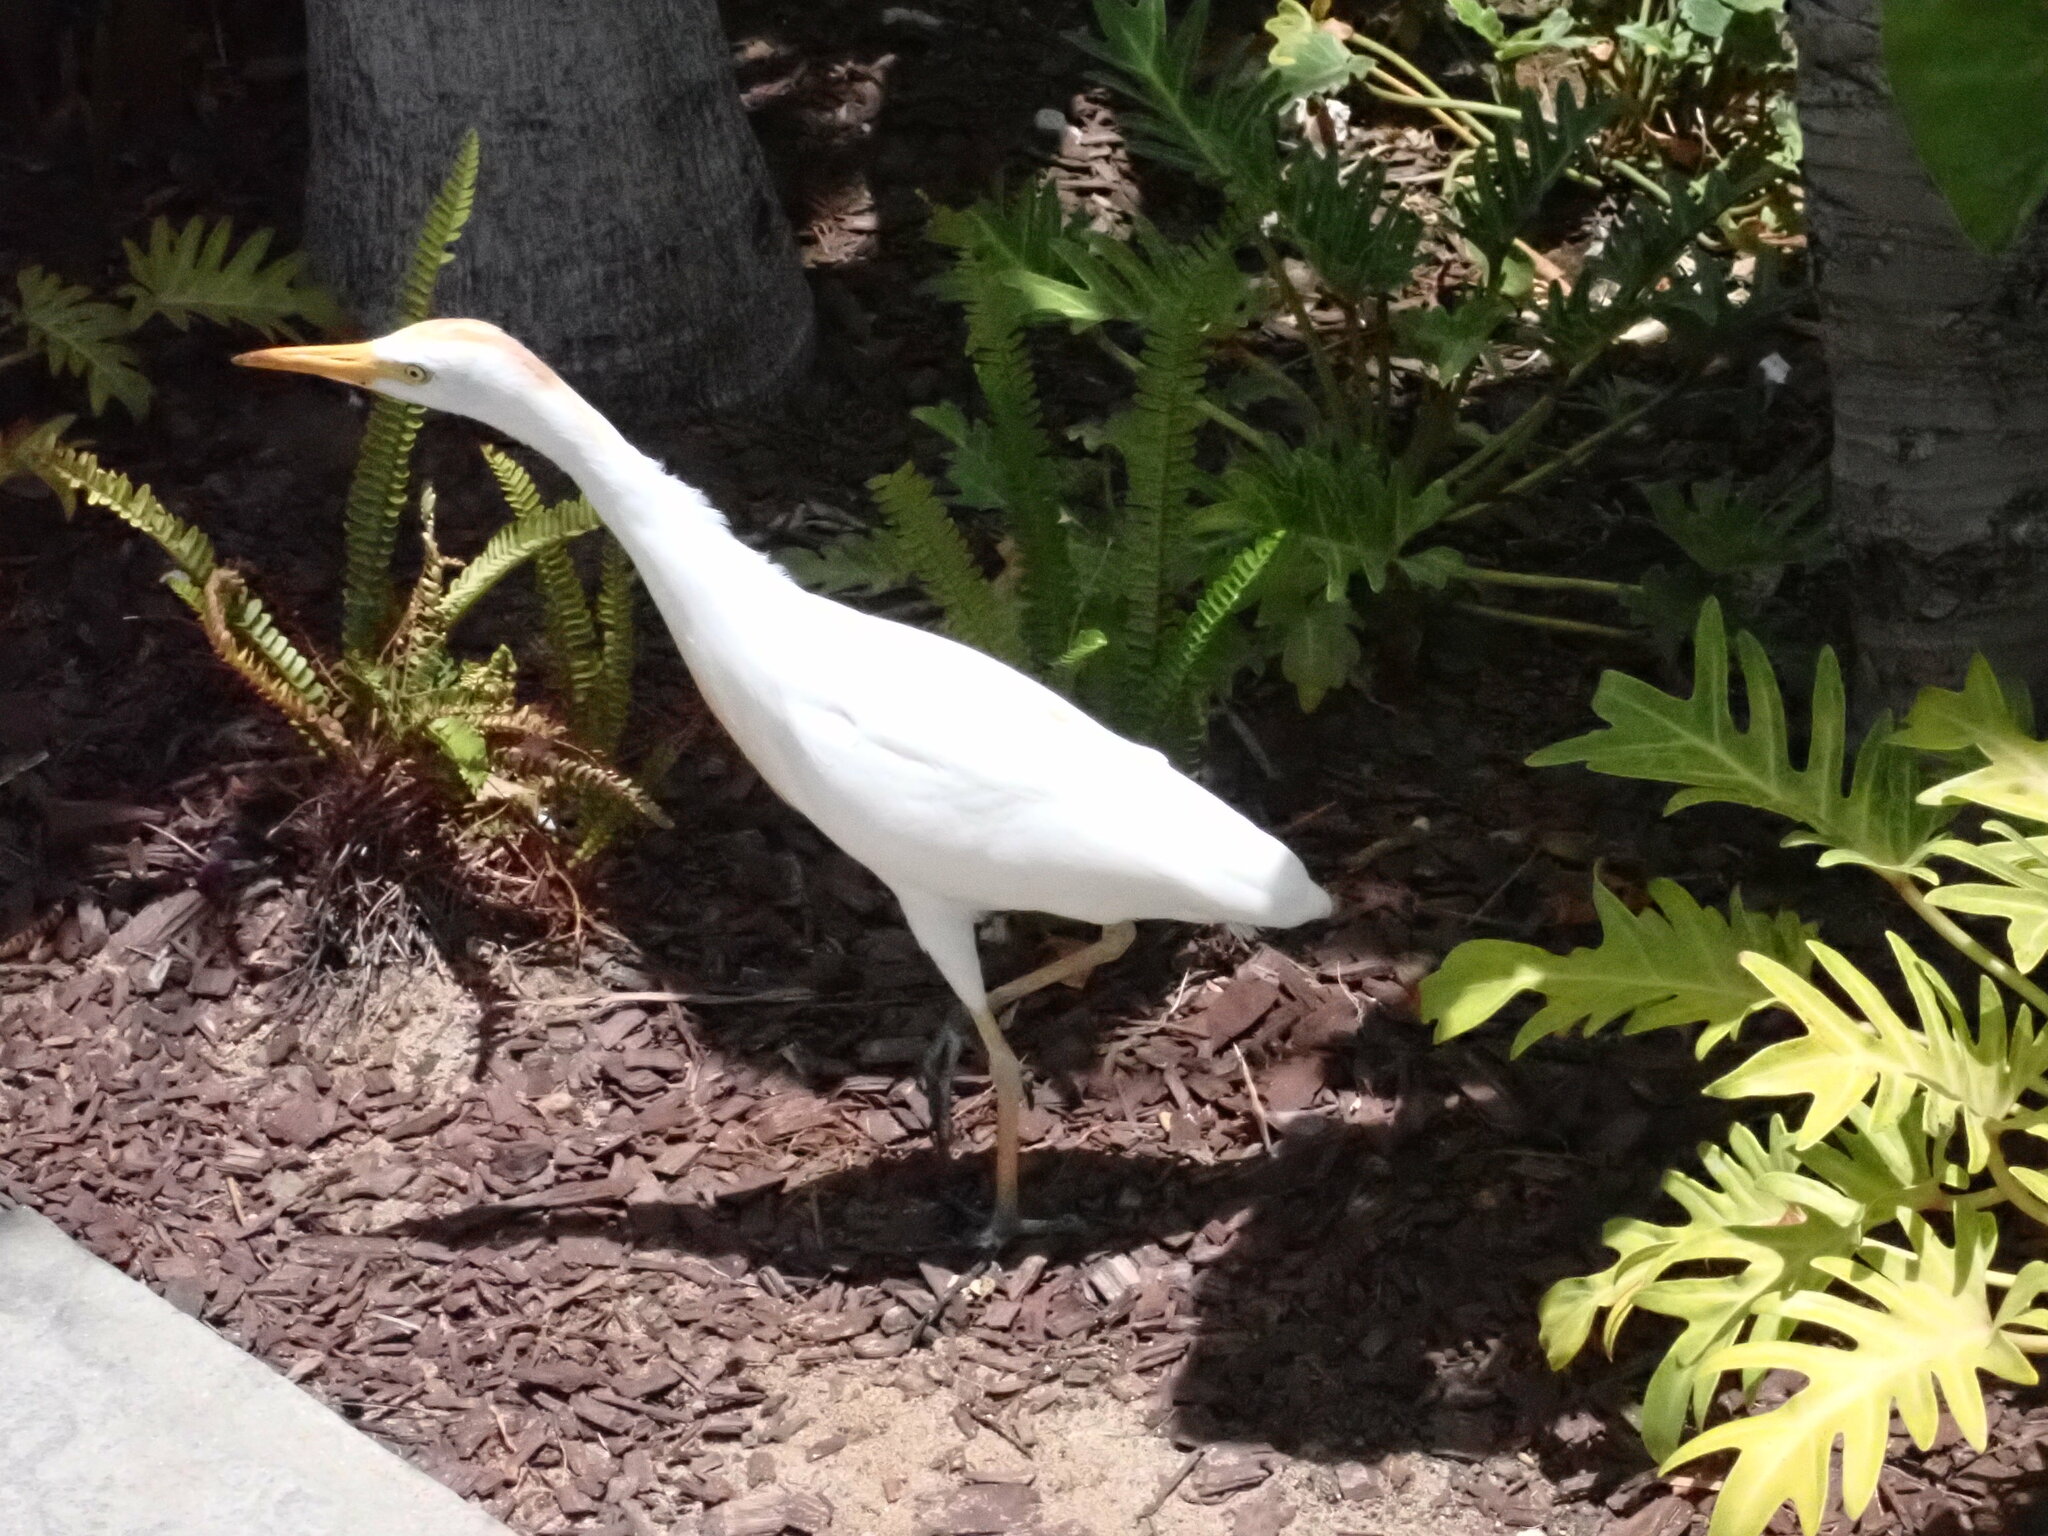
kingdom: Animalia
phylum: Chordata
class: Aves
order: Pelecaniformes
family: Ardeidae
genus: Bubulcus
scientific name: Bubulcus ibis
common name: Cattle egret
